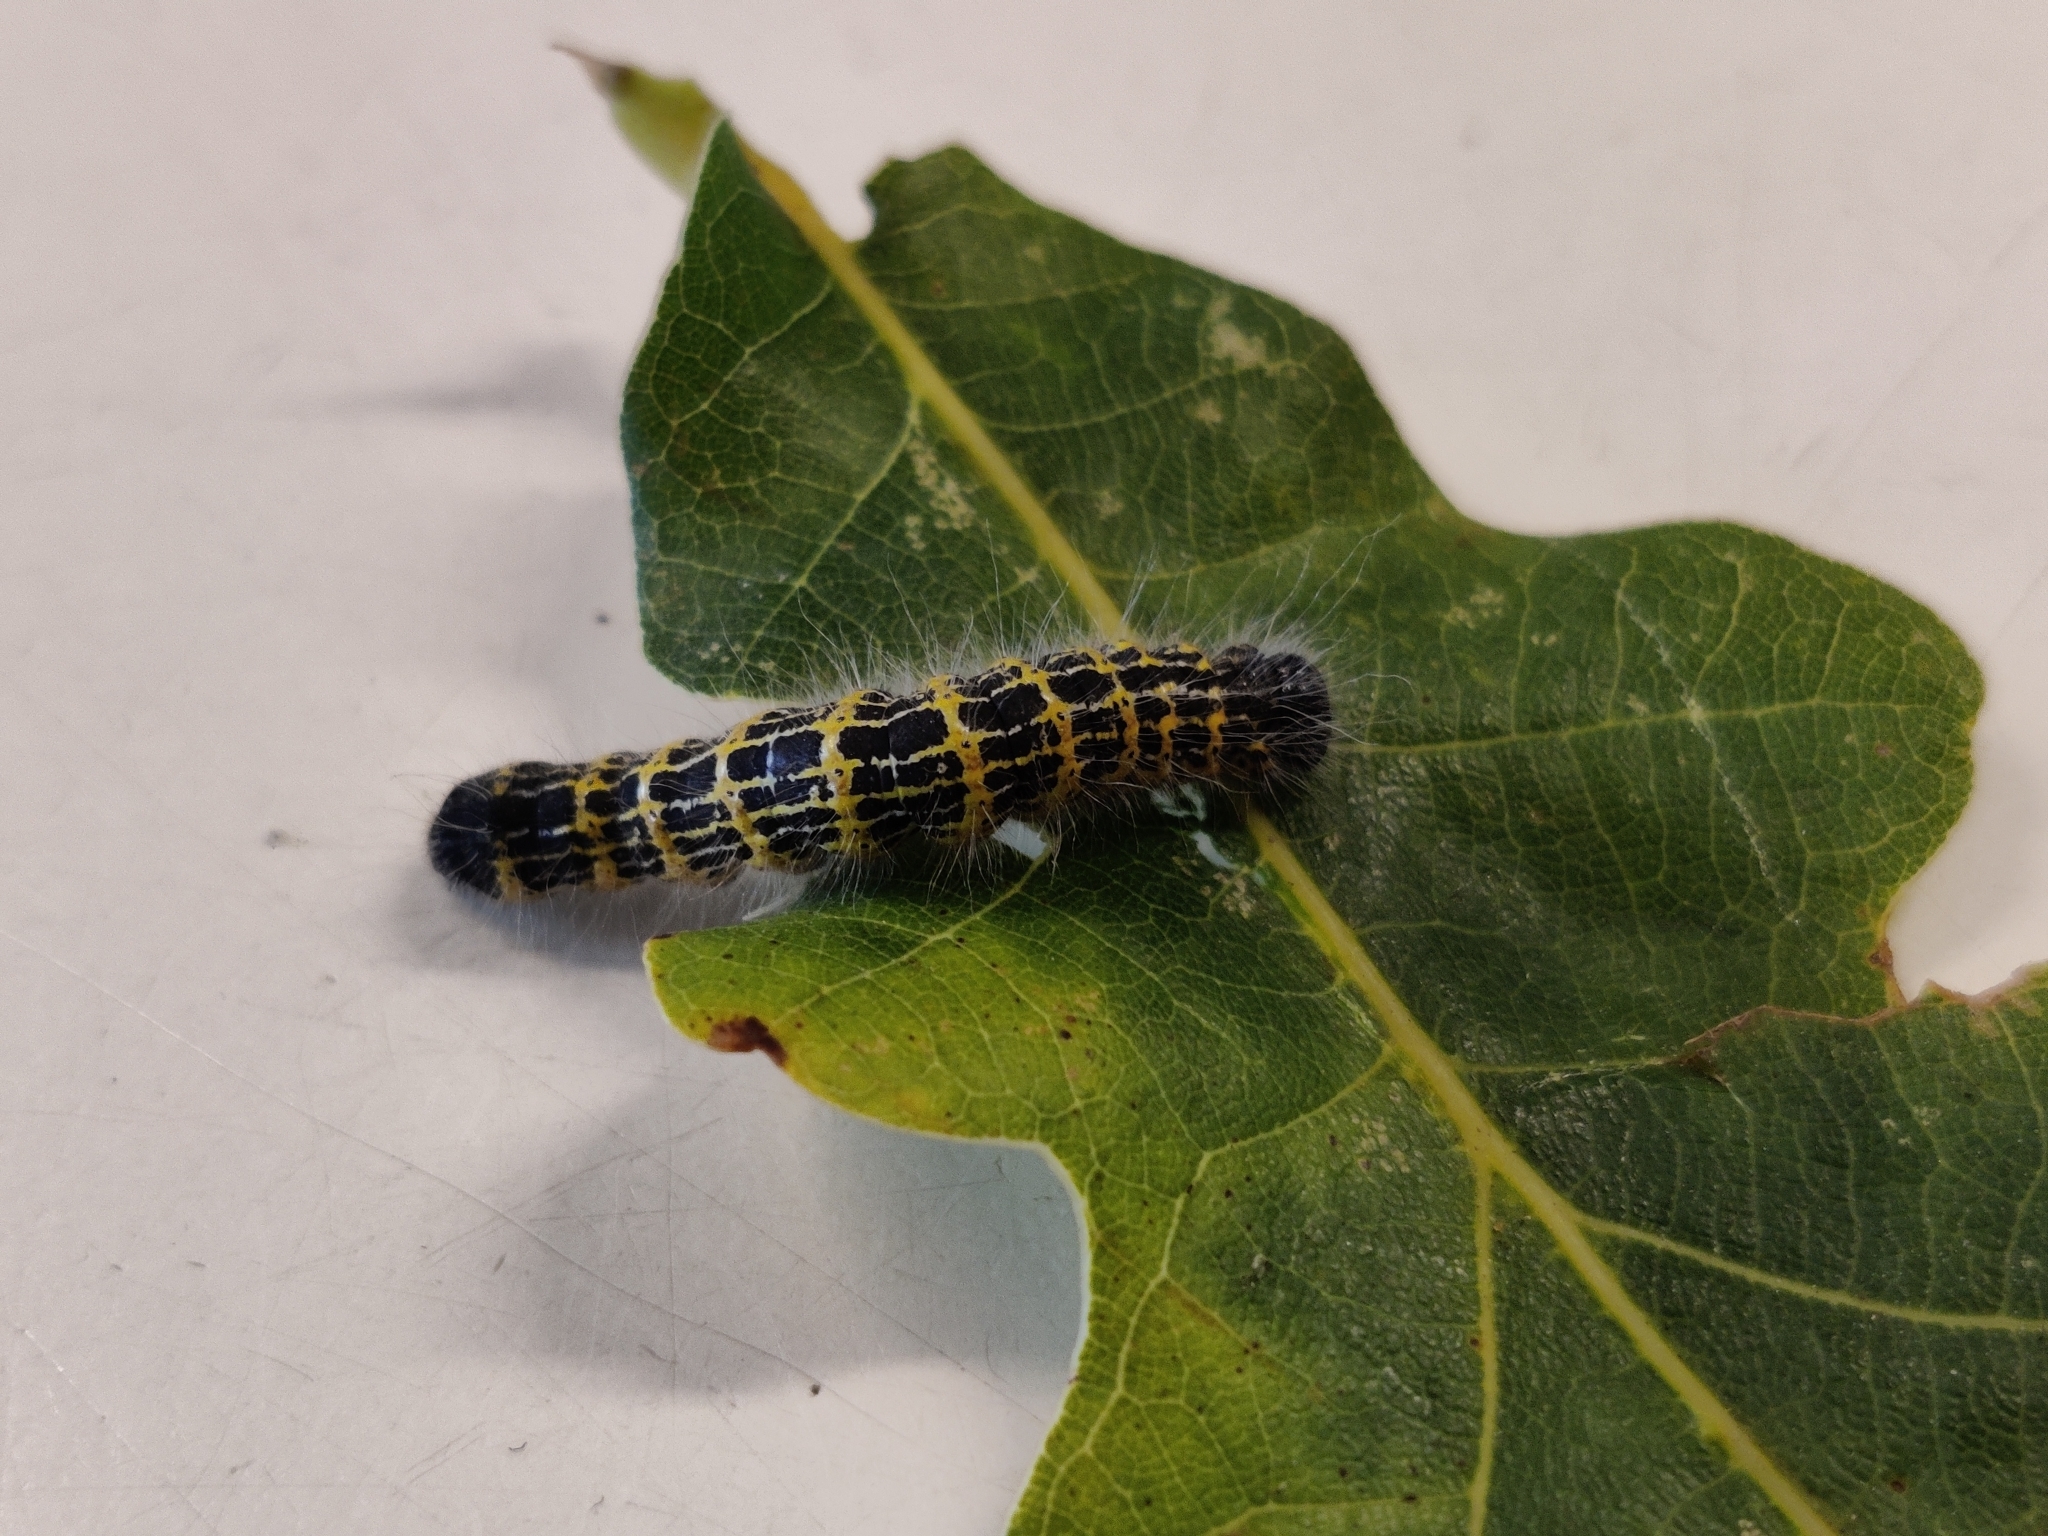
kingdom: Animalia
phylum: Arthropoda
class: Insecta
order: Lepidoptera
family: Notodontidae
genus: Phalera
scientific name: Phalera bucephala
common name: Buff-tip
